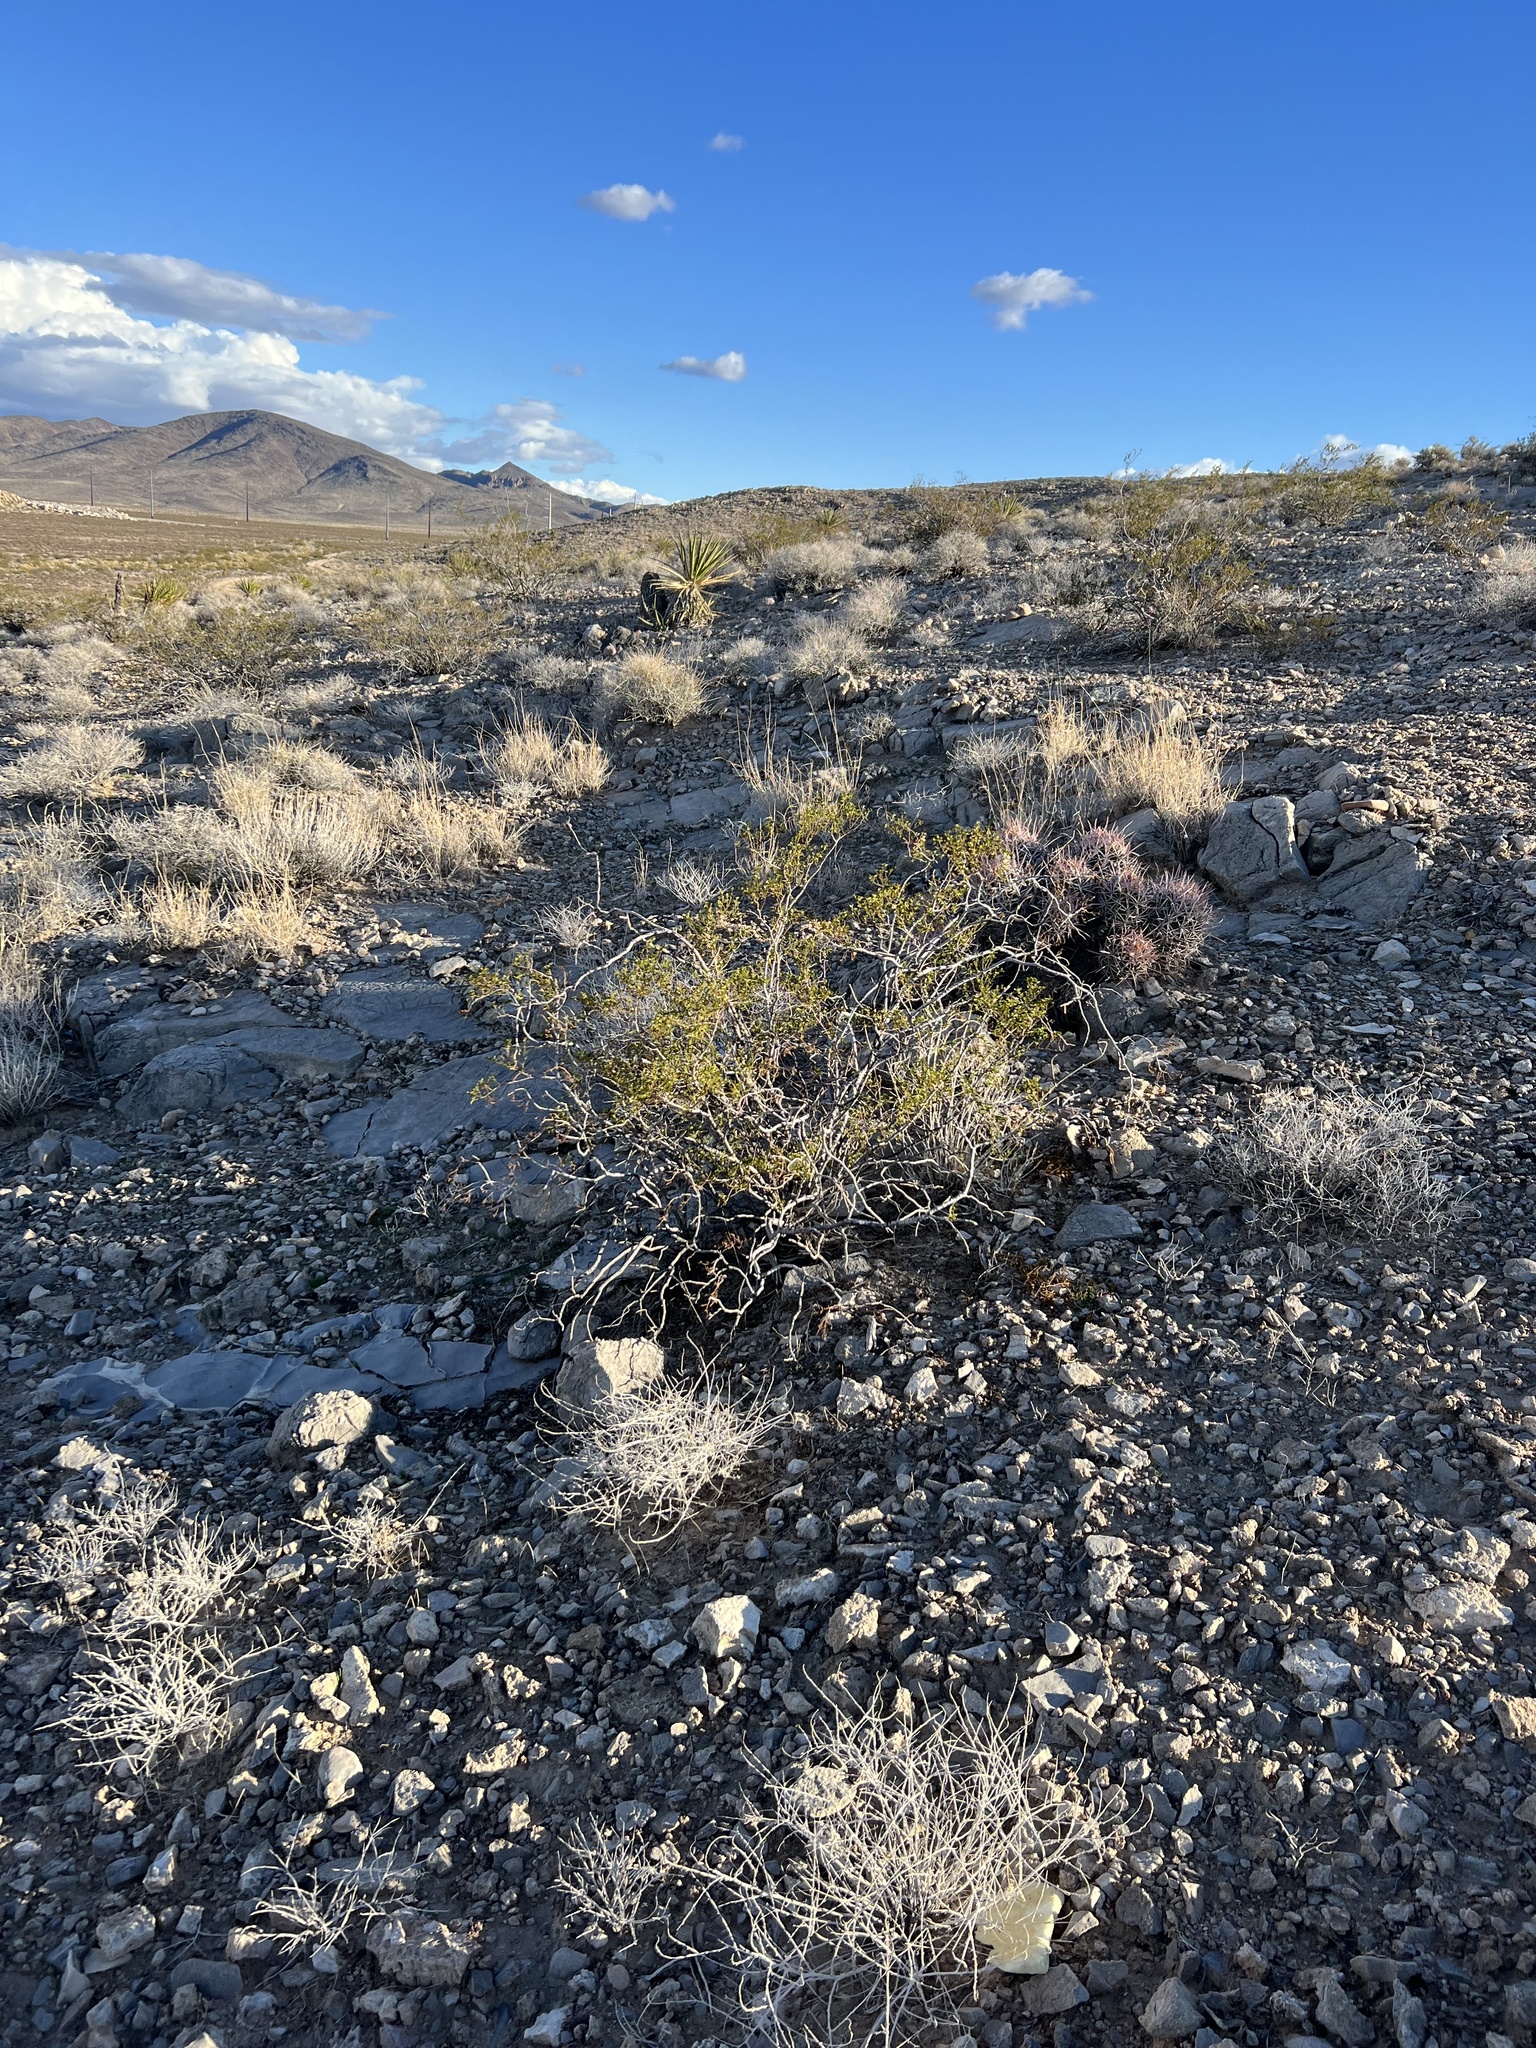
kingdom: Plantae
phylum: Tracheophyta
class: Magnoliopsida
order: Zygophyllales
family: Zygophyllaceae
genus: Larrea
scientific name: Larrea tridentata
